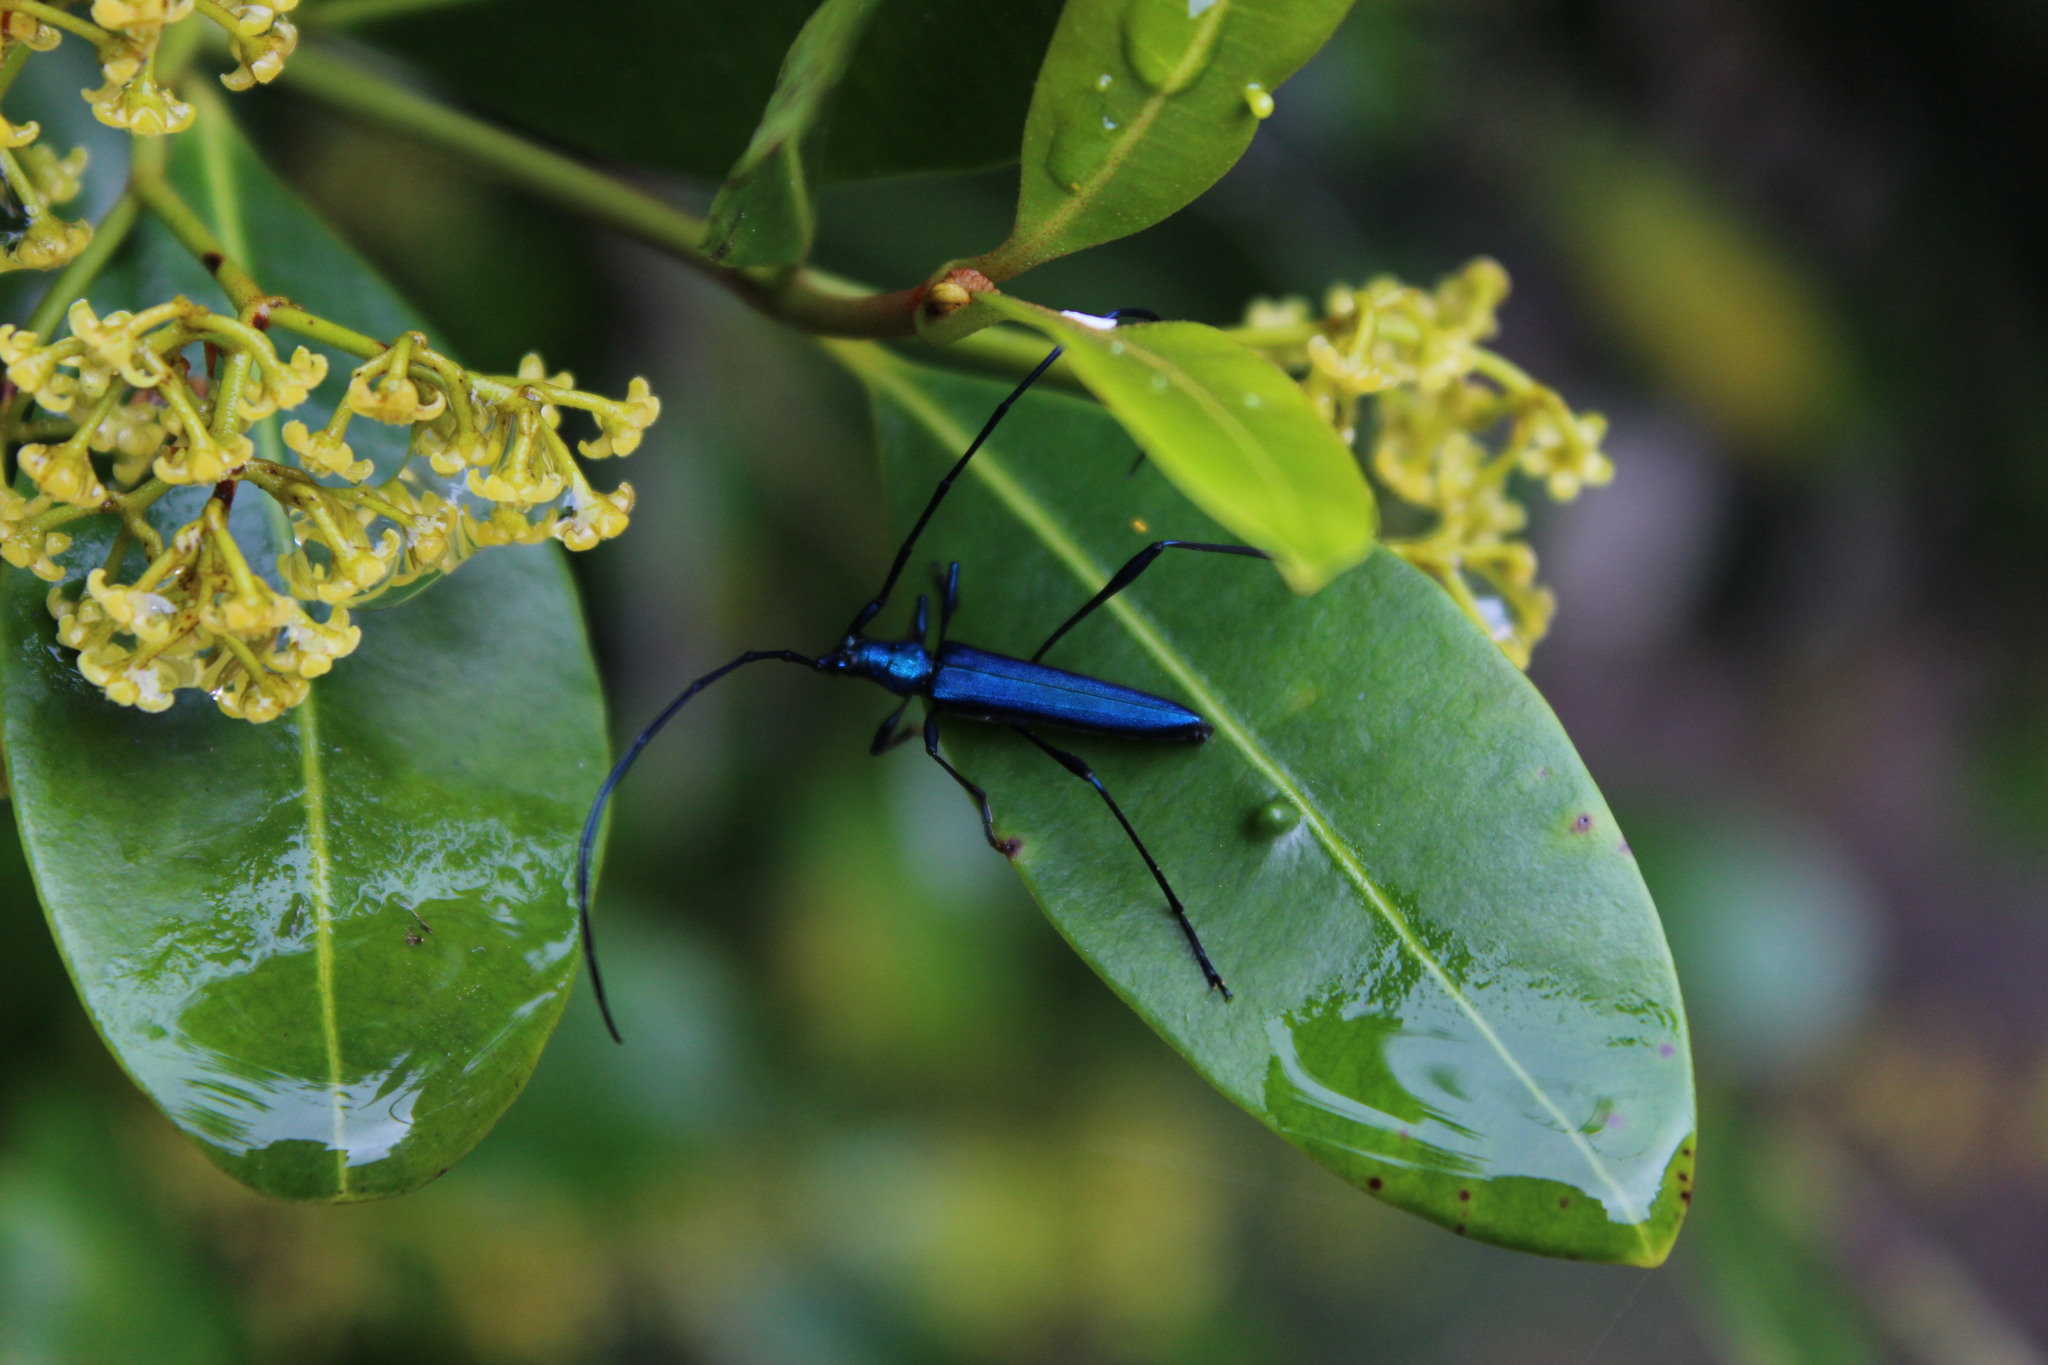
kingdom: Animalia
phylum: Arthropoda
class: Insecta
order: Coleoptera
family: Cerambycidae
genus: Promeces
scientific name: Promeces longipes
